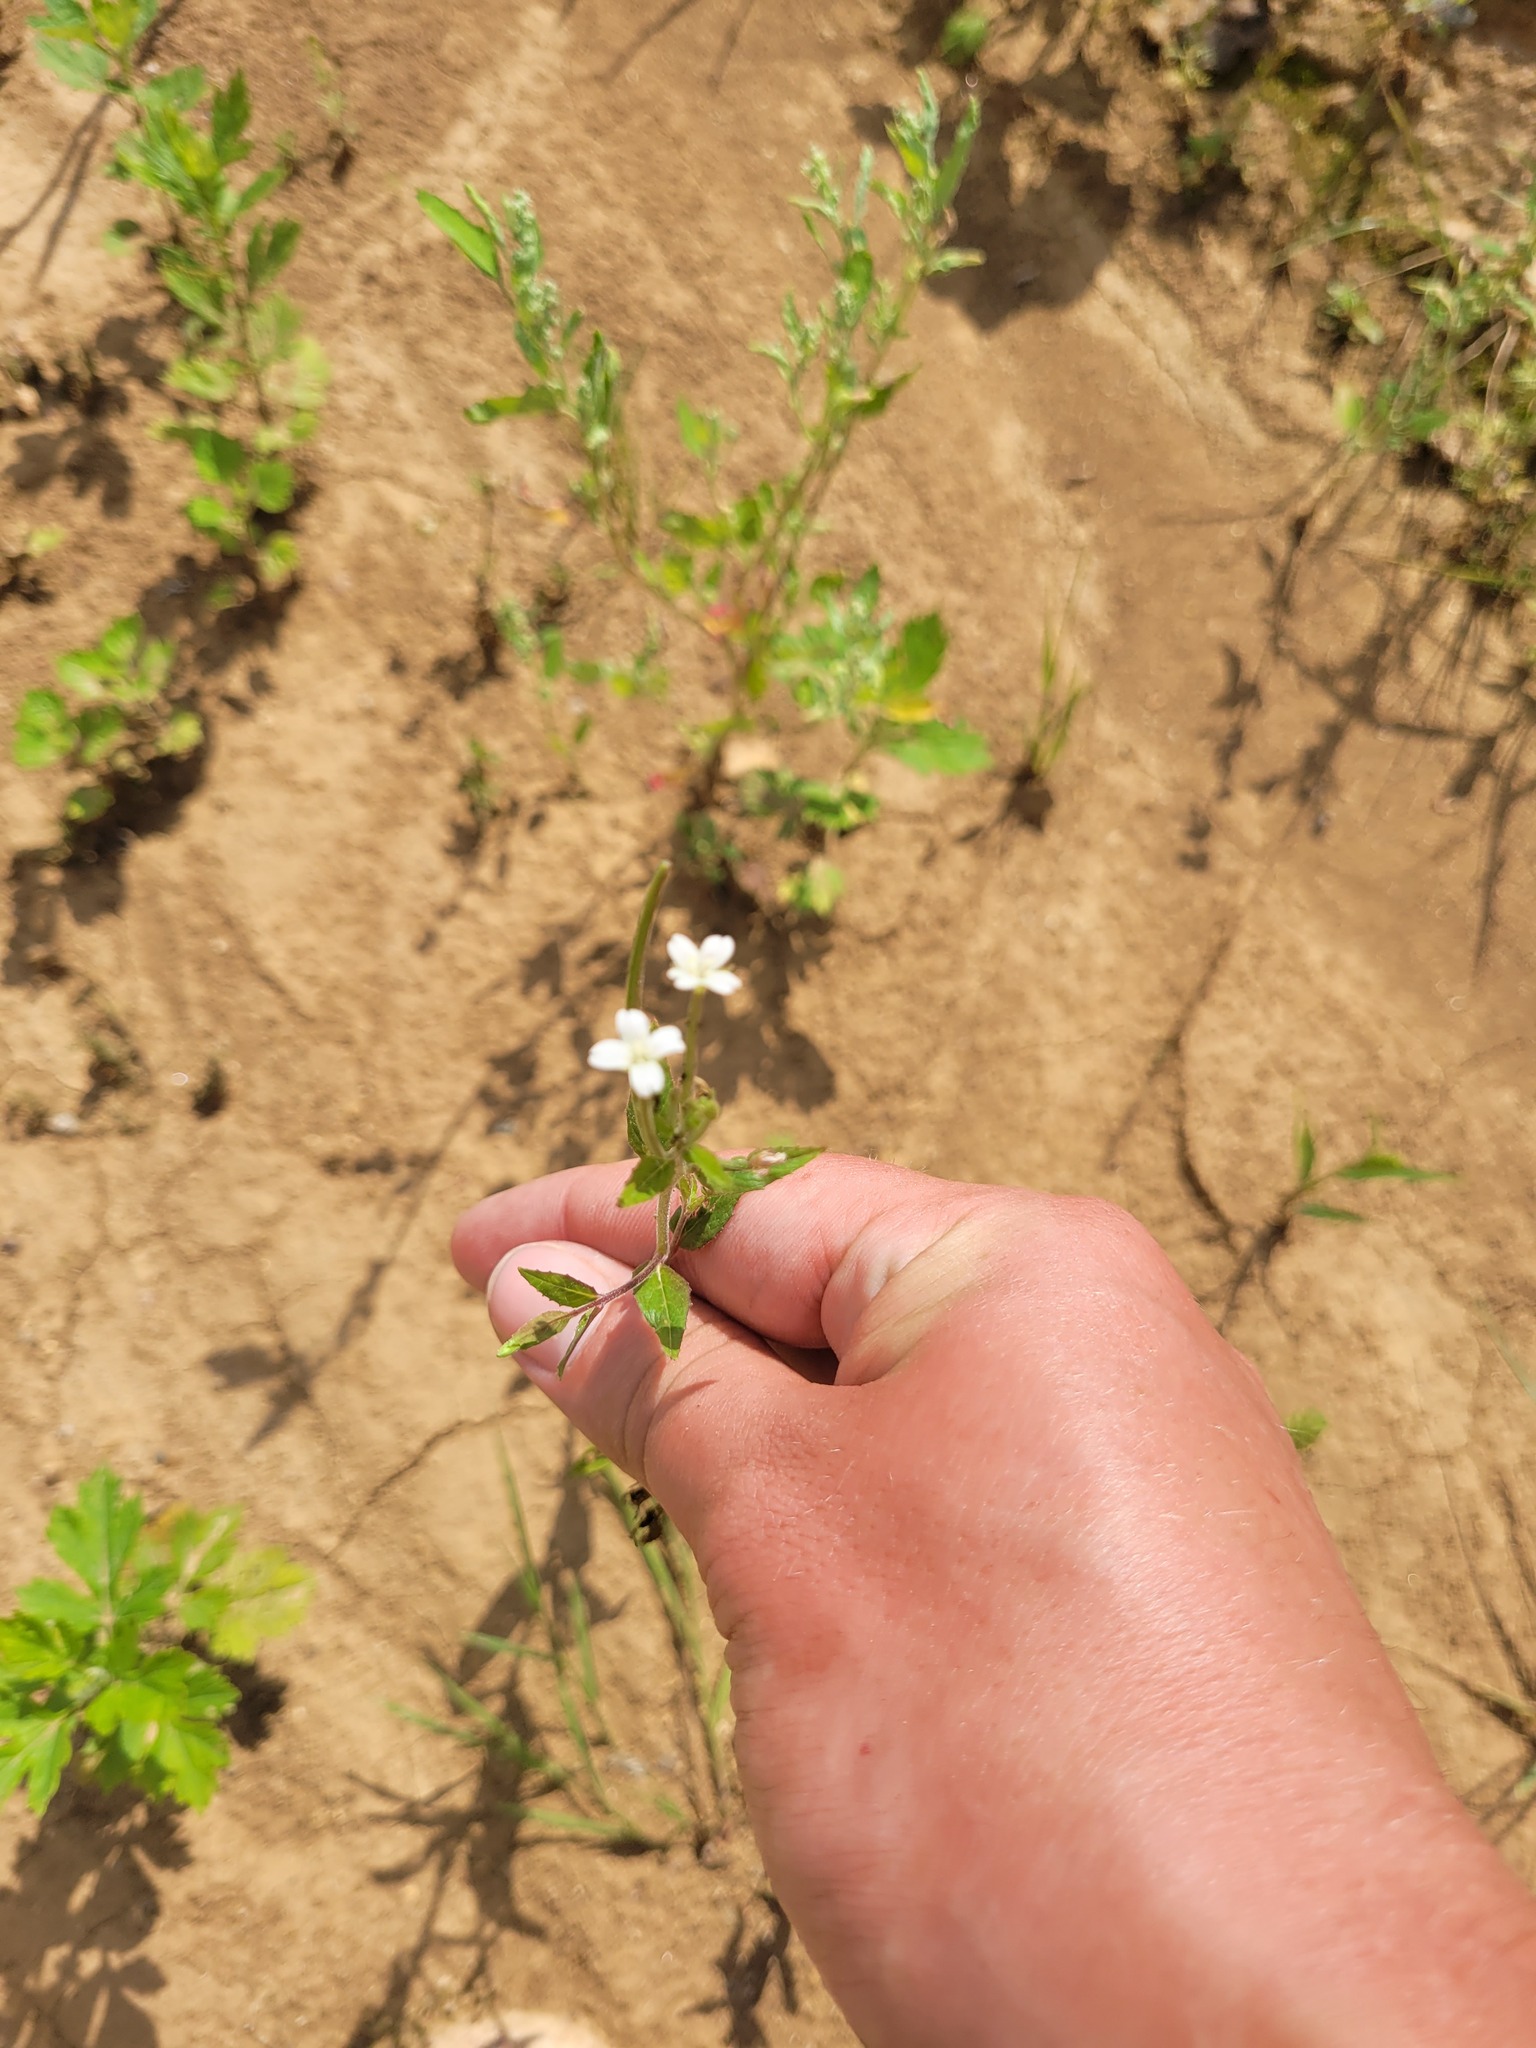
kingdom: Plantae
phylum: Tracheophyta
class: Magnoliopsida
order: Myrtales
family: Onagraceae
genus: Epilobium
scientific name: Epilobium pseudorubescens
